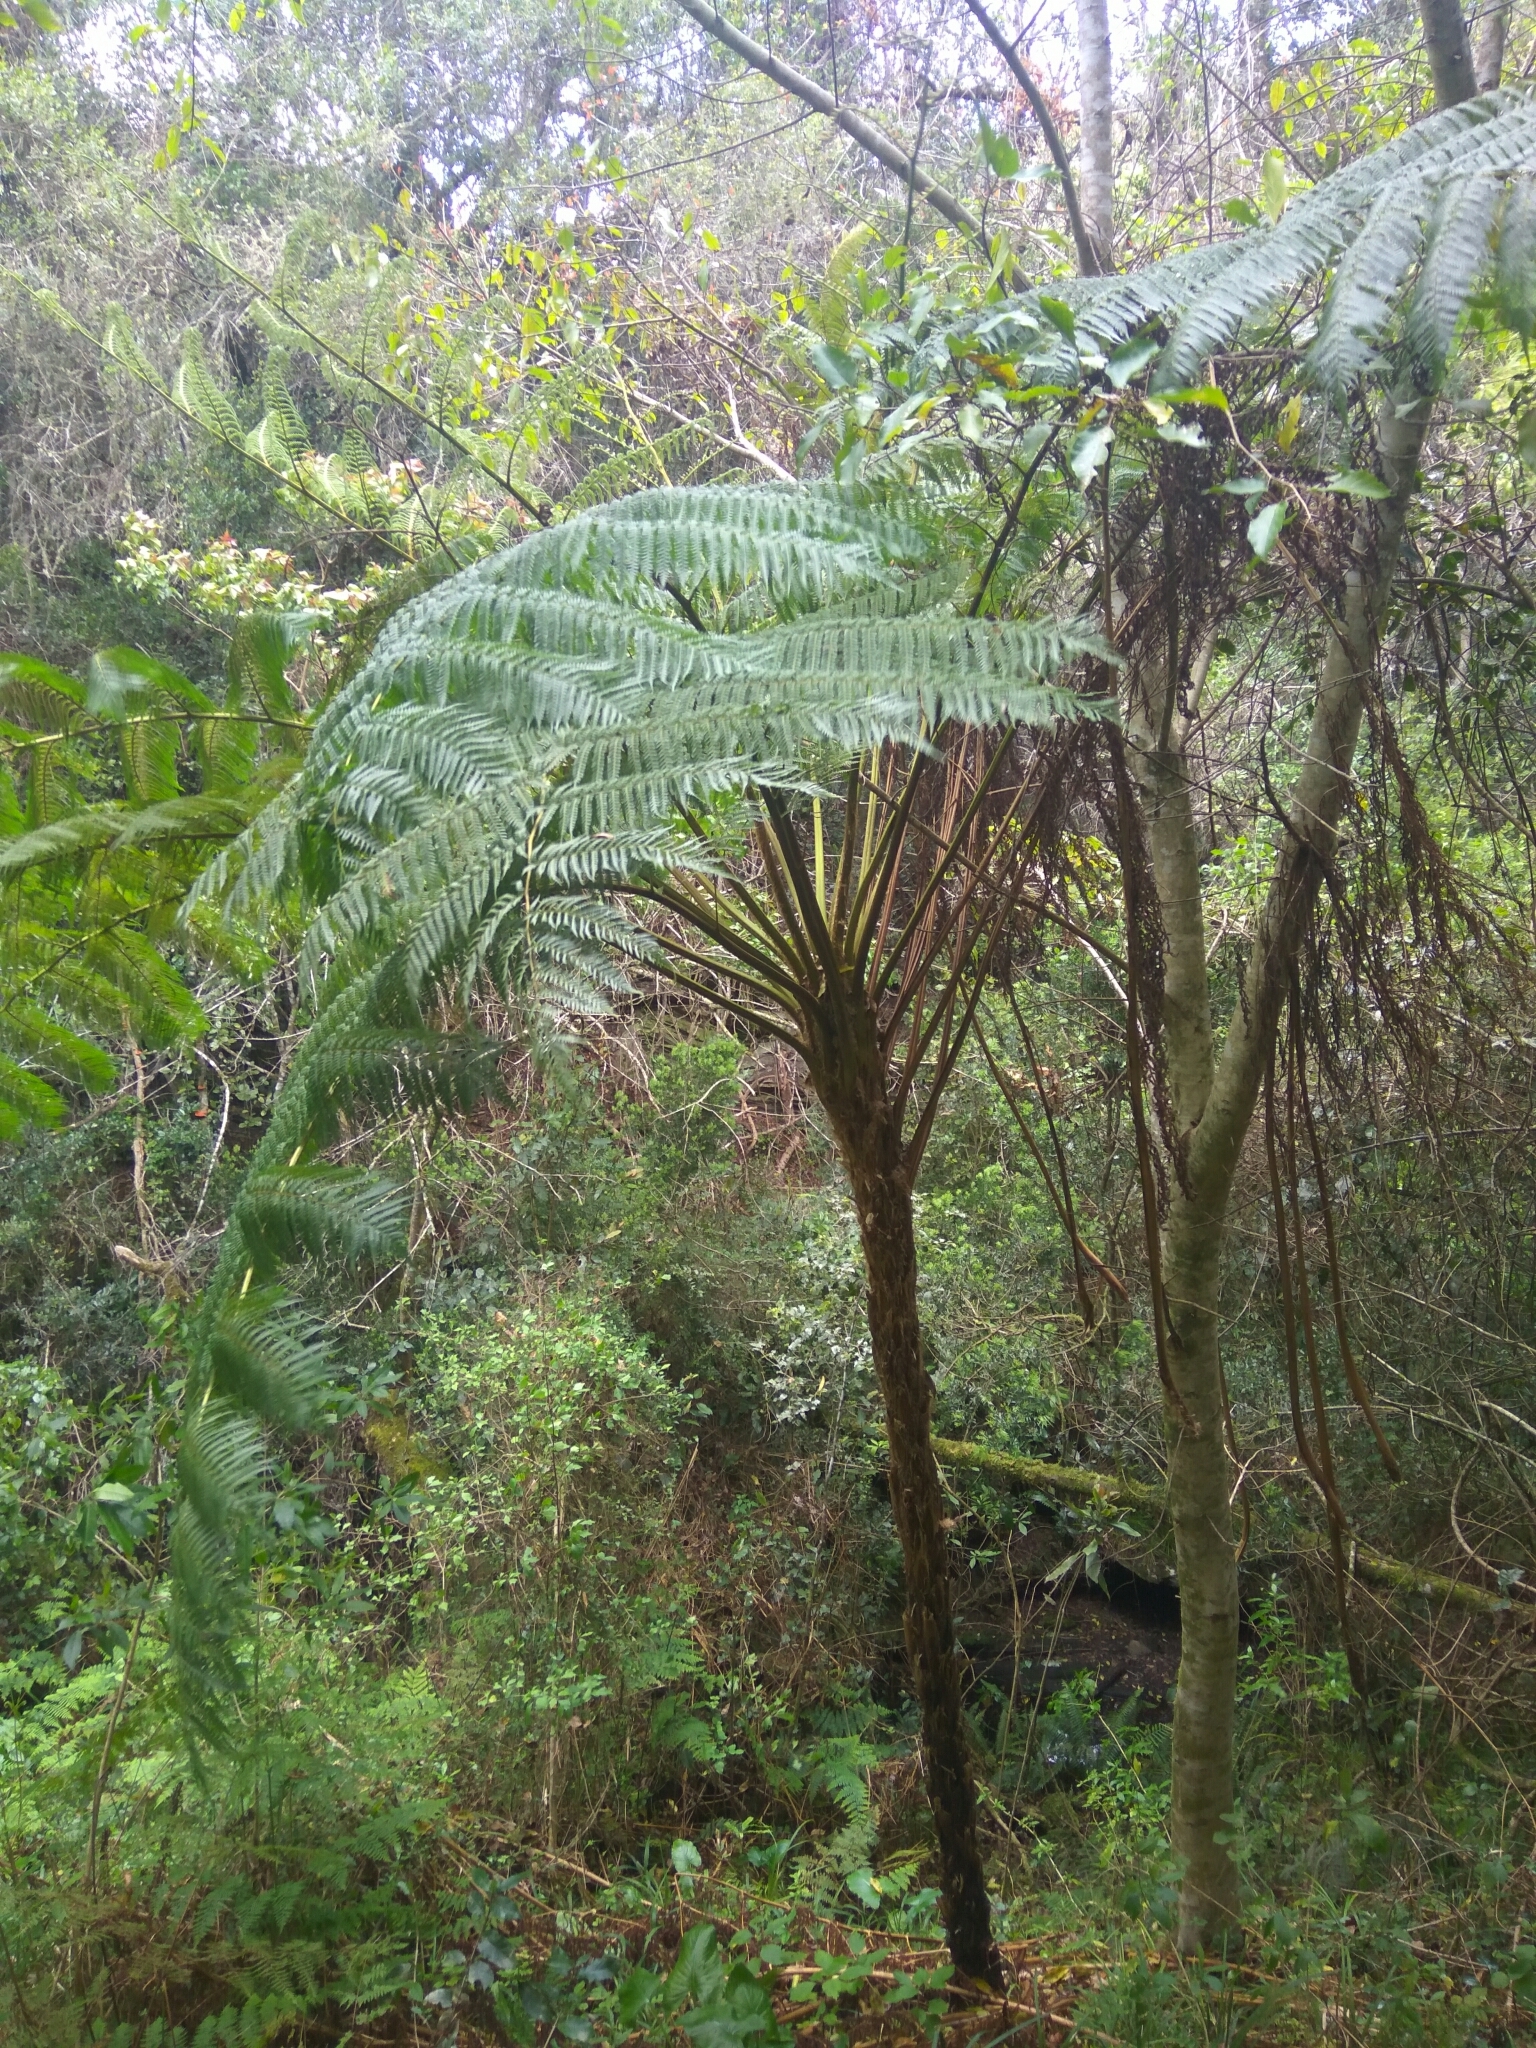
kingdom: Plantae
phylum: Tracheophyta
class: Polypodiopsida
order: Cyatheales
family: Cyatheaceae
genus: Sphaeropteris
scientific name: Sphaeropteris cooperi
